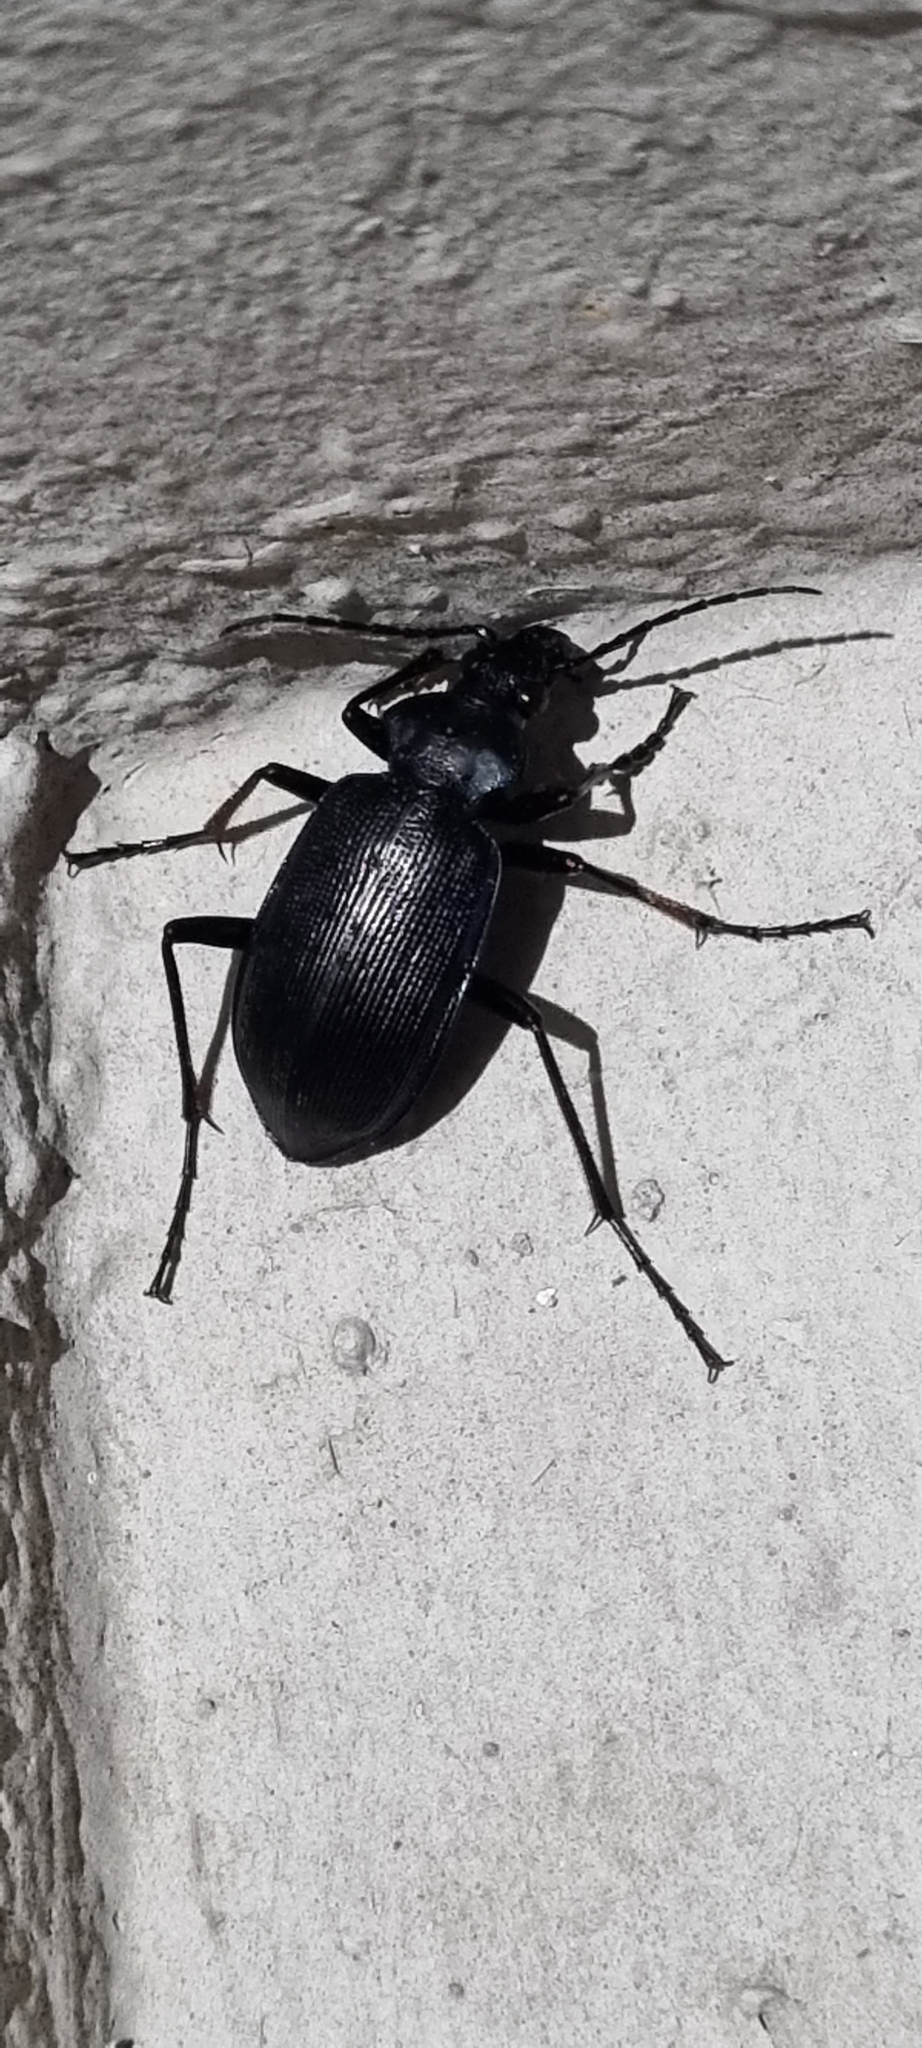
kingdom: Animalia
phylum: Arthropoda
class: Insecta
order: Coleoptera
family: Carabidae
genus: Calosoma
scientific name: Calosoma angulatum
